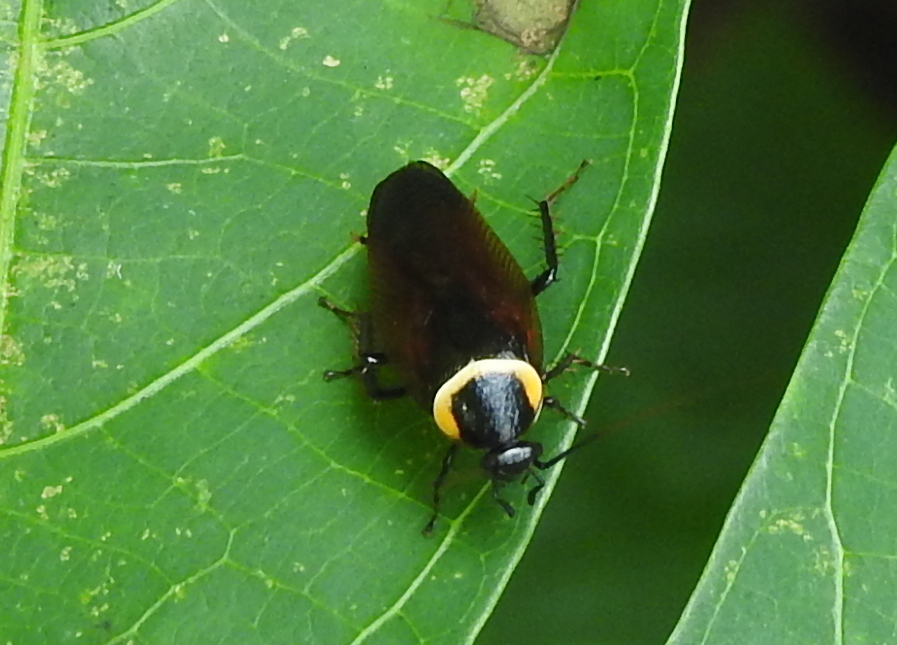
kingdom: Animalia
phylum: Arthropoda
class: Insecta
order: Blattodea
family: Ectobiidae
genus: Hemithyrsocera
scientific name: Hemithyrsocera palliata
